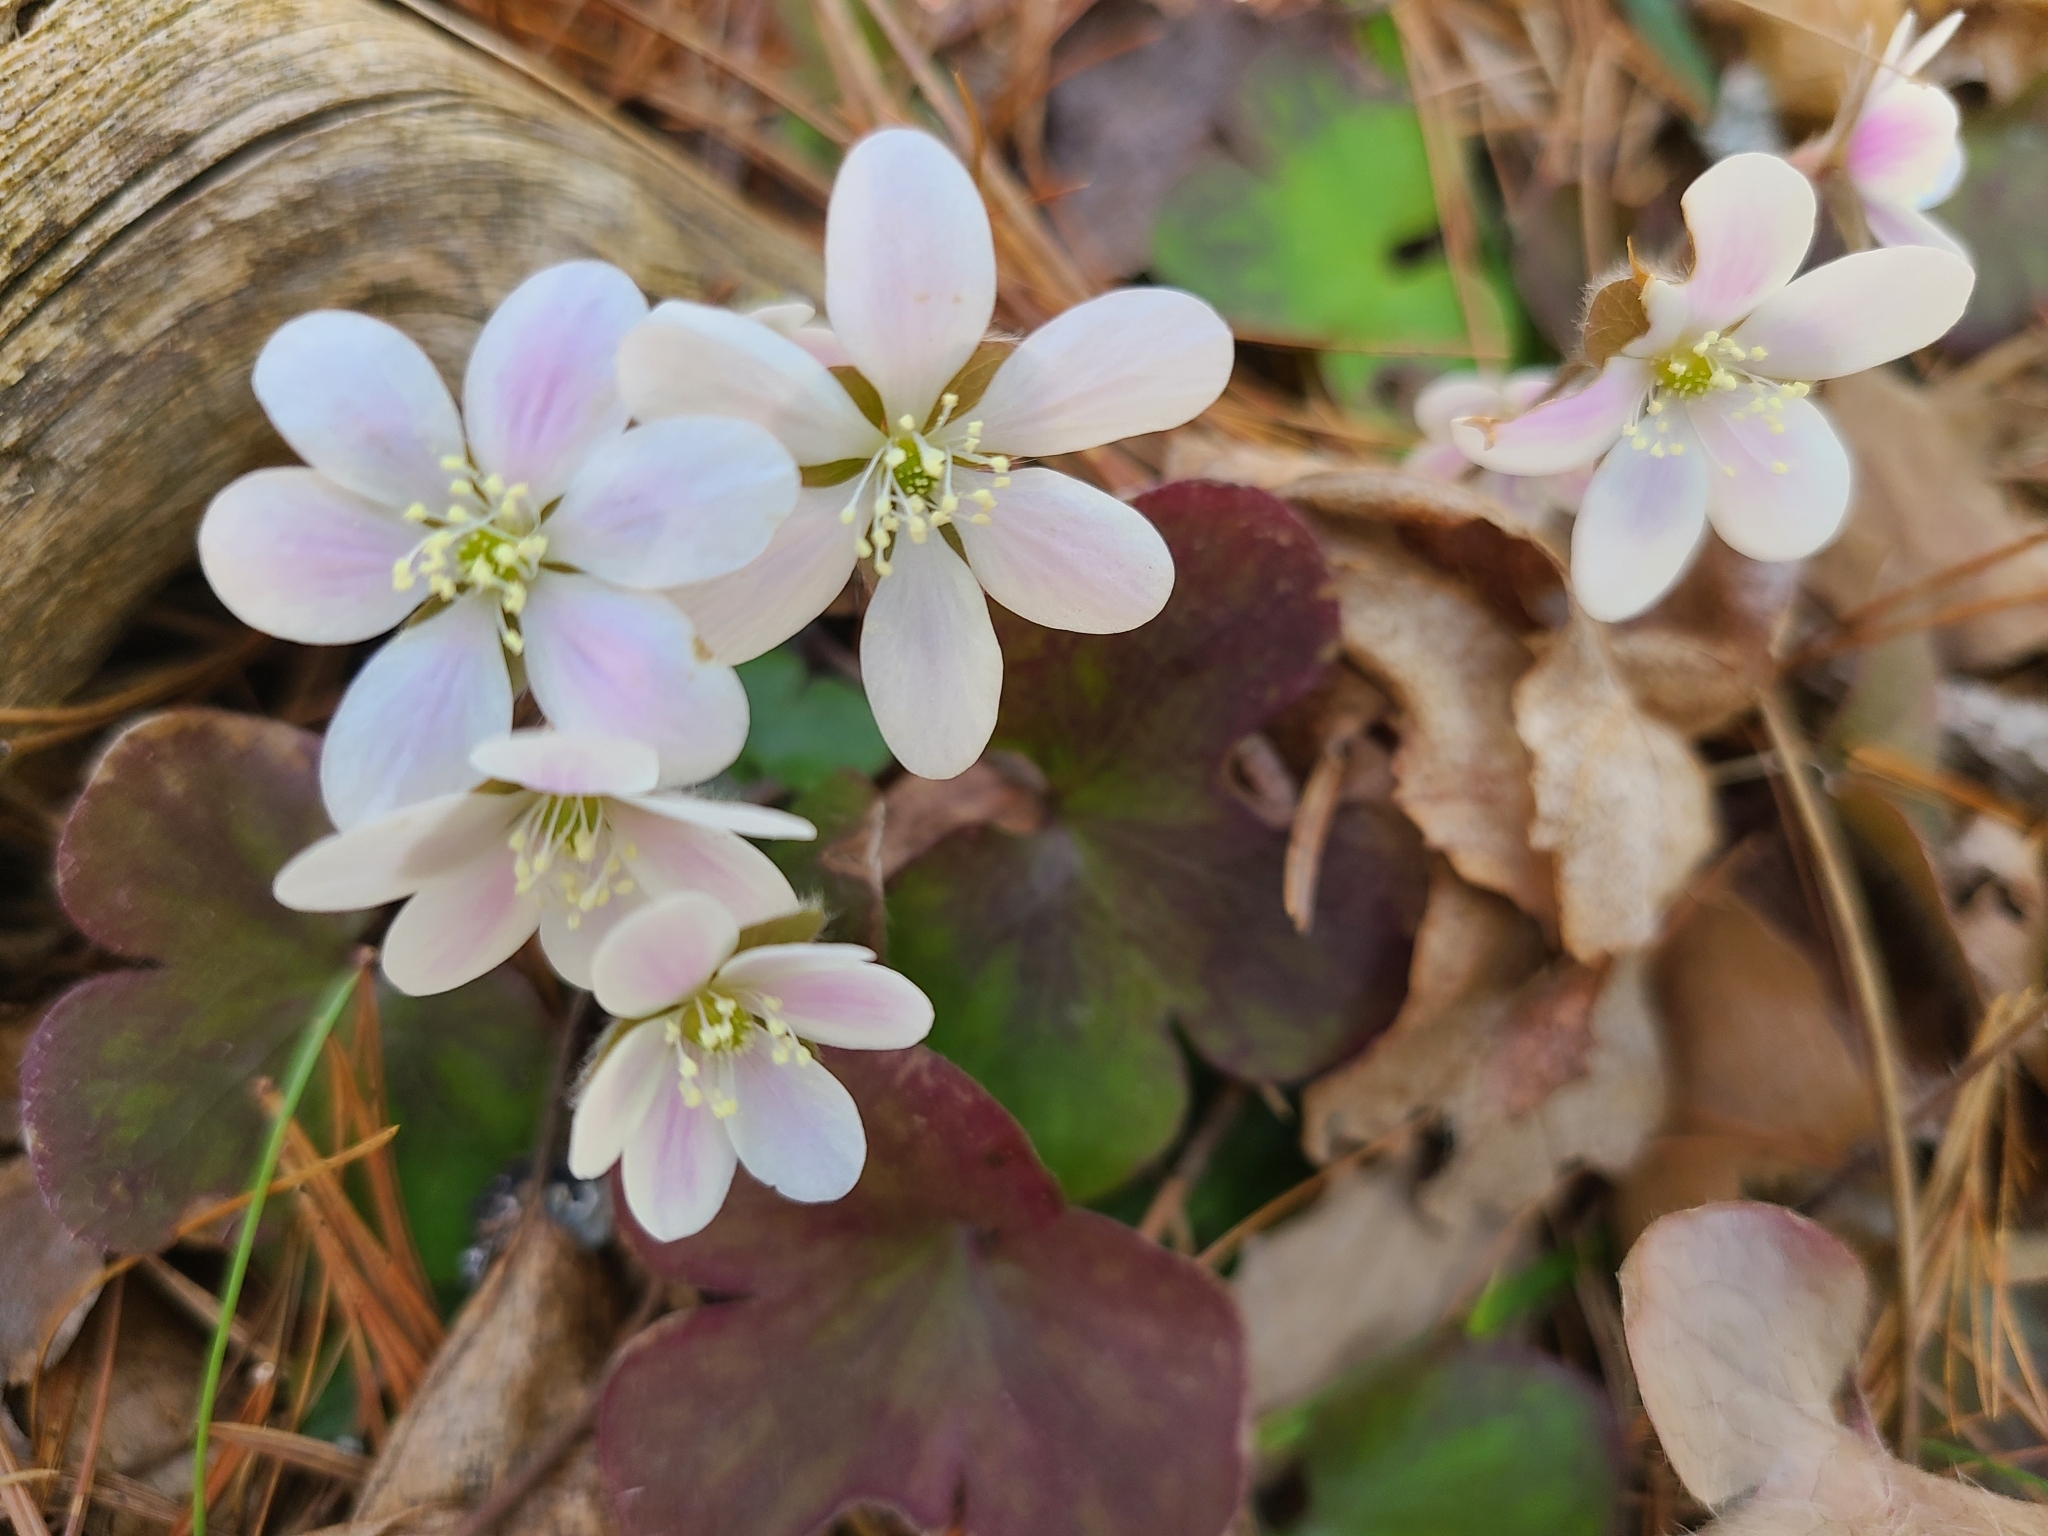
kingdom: Plantae
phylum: Tracheophyta
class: Magnoliopsida
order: Ranunculales
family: Ranunculaceae
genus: Hepatica
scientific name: Hepatica americana
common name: American hepatica
